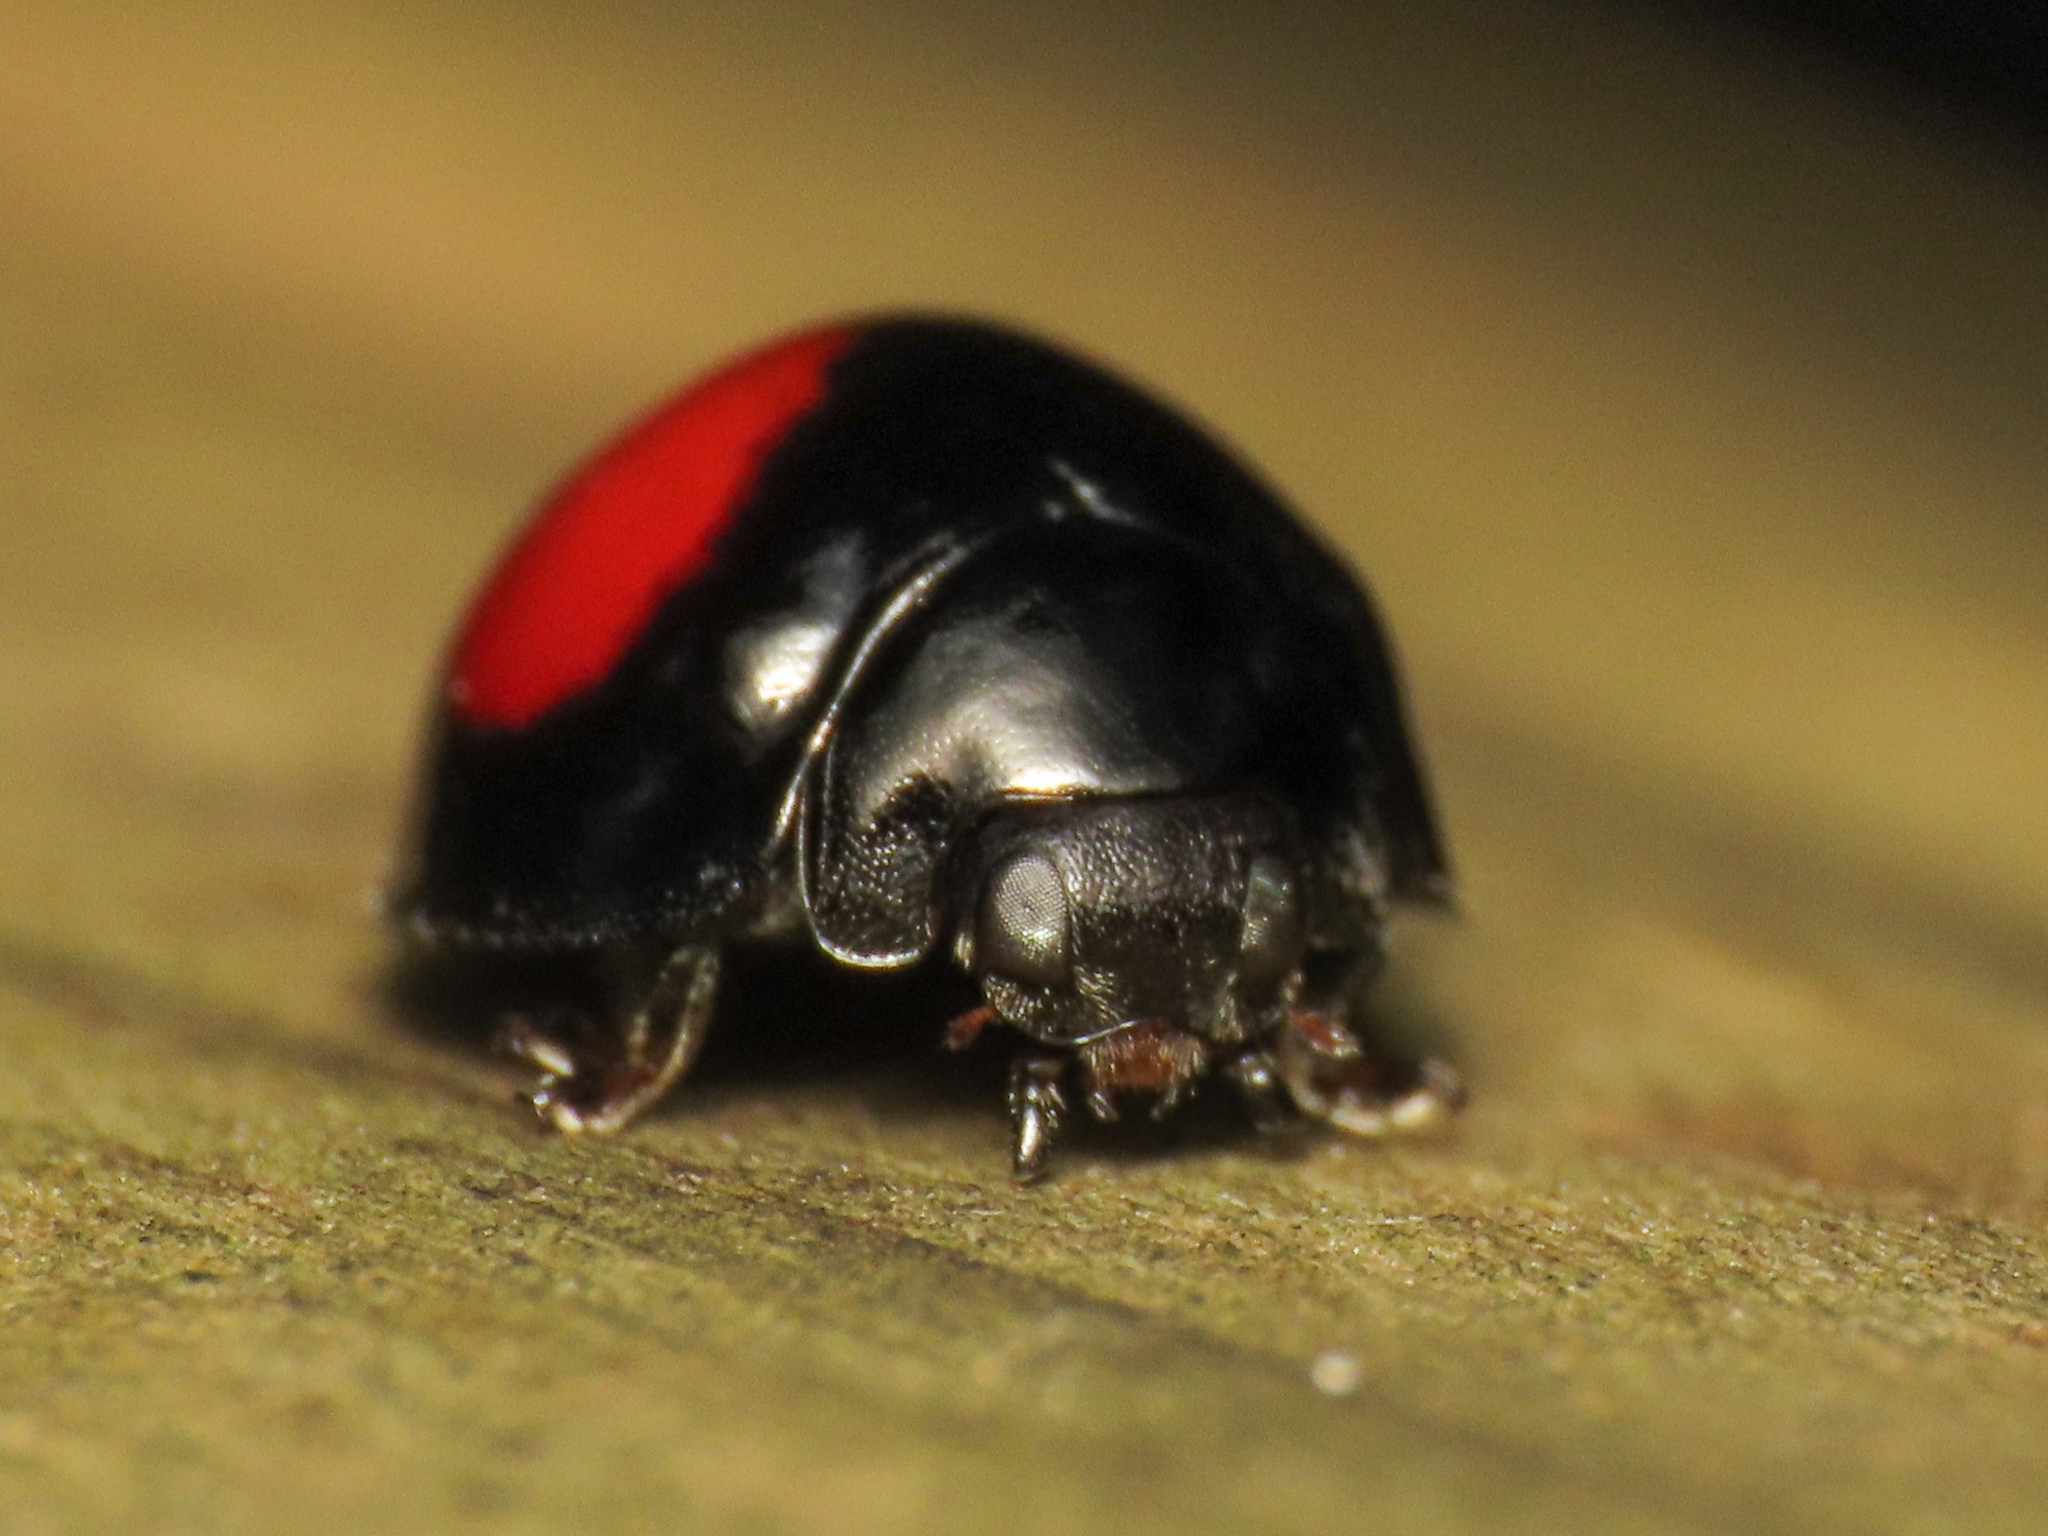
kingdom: Animalia
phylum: Arthropoda
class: Insecta
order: Coleoptera
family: Coccinellidae
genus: Chilocorus
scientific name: Chilocorus renipustulatus
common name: Kidney-spot ladybird
